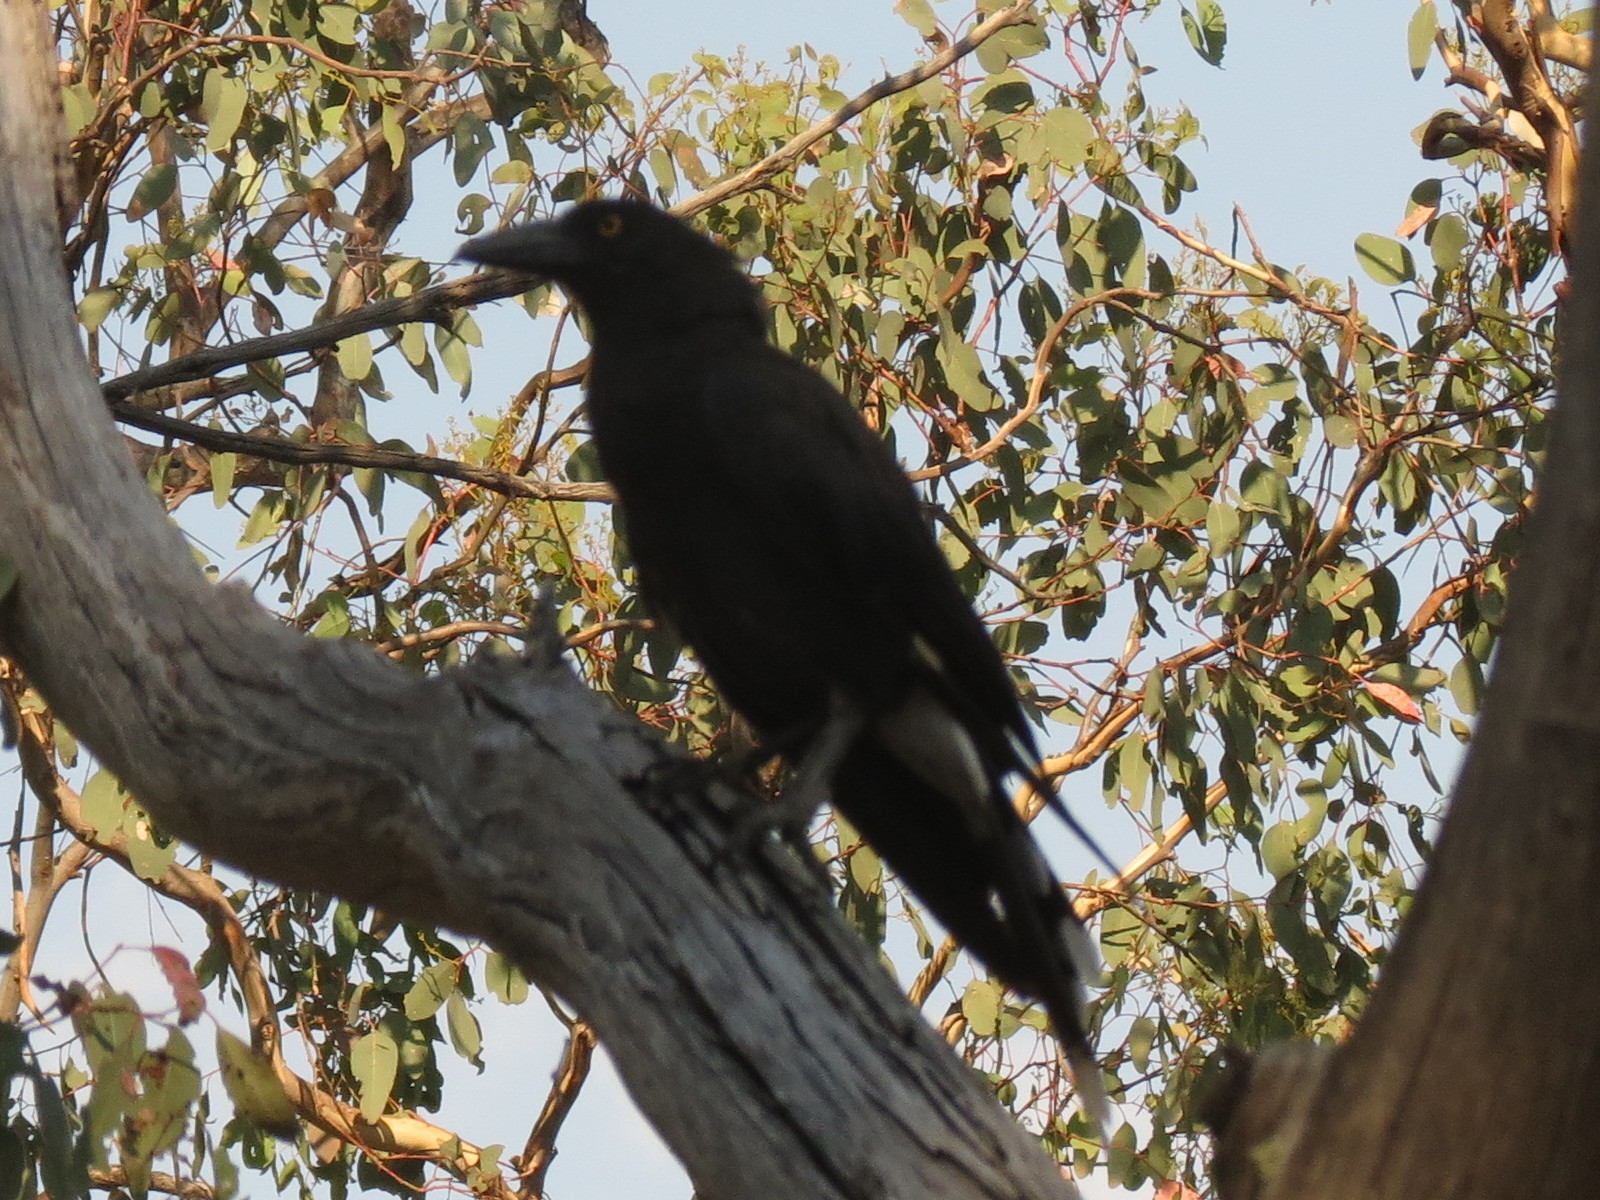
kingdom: Animalia
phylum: Chordata
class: Aves
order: Passeriformes
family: Cracticidae
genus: Strepera
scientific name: Strepera graculina
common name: Pied currawong
